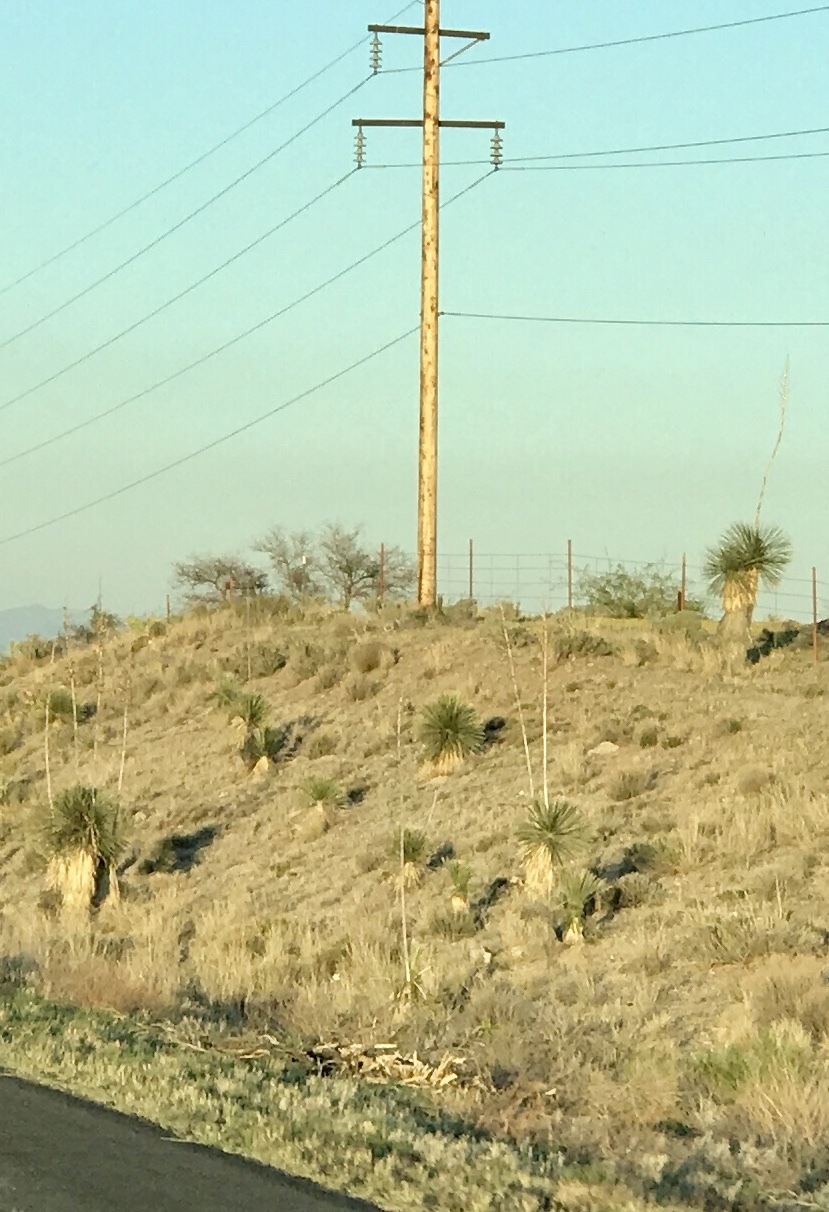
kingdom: Plantae
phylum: Tracheophyta
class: Liliopsida
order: Asparagales
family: Asparagaceae
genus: Yucca
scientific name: Yucca elata
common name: Palmella
